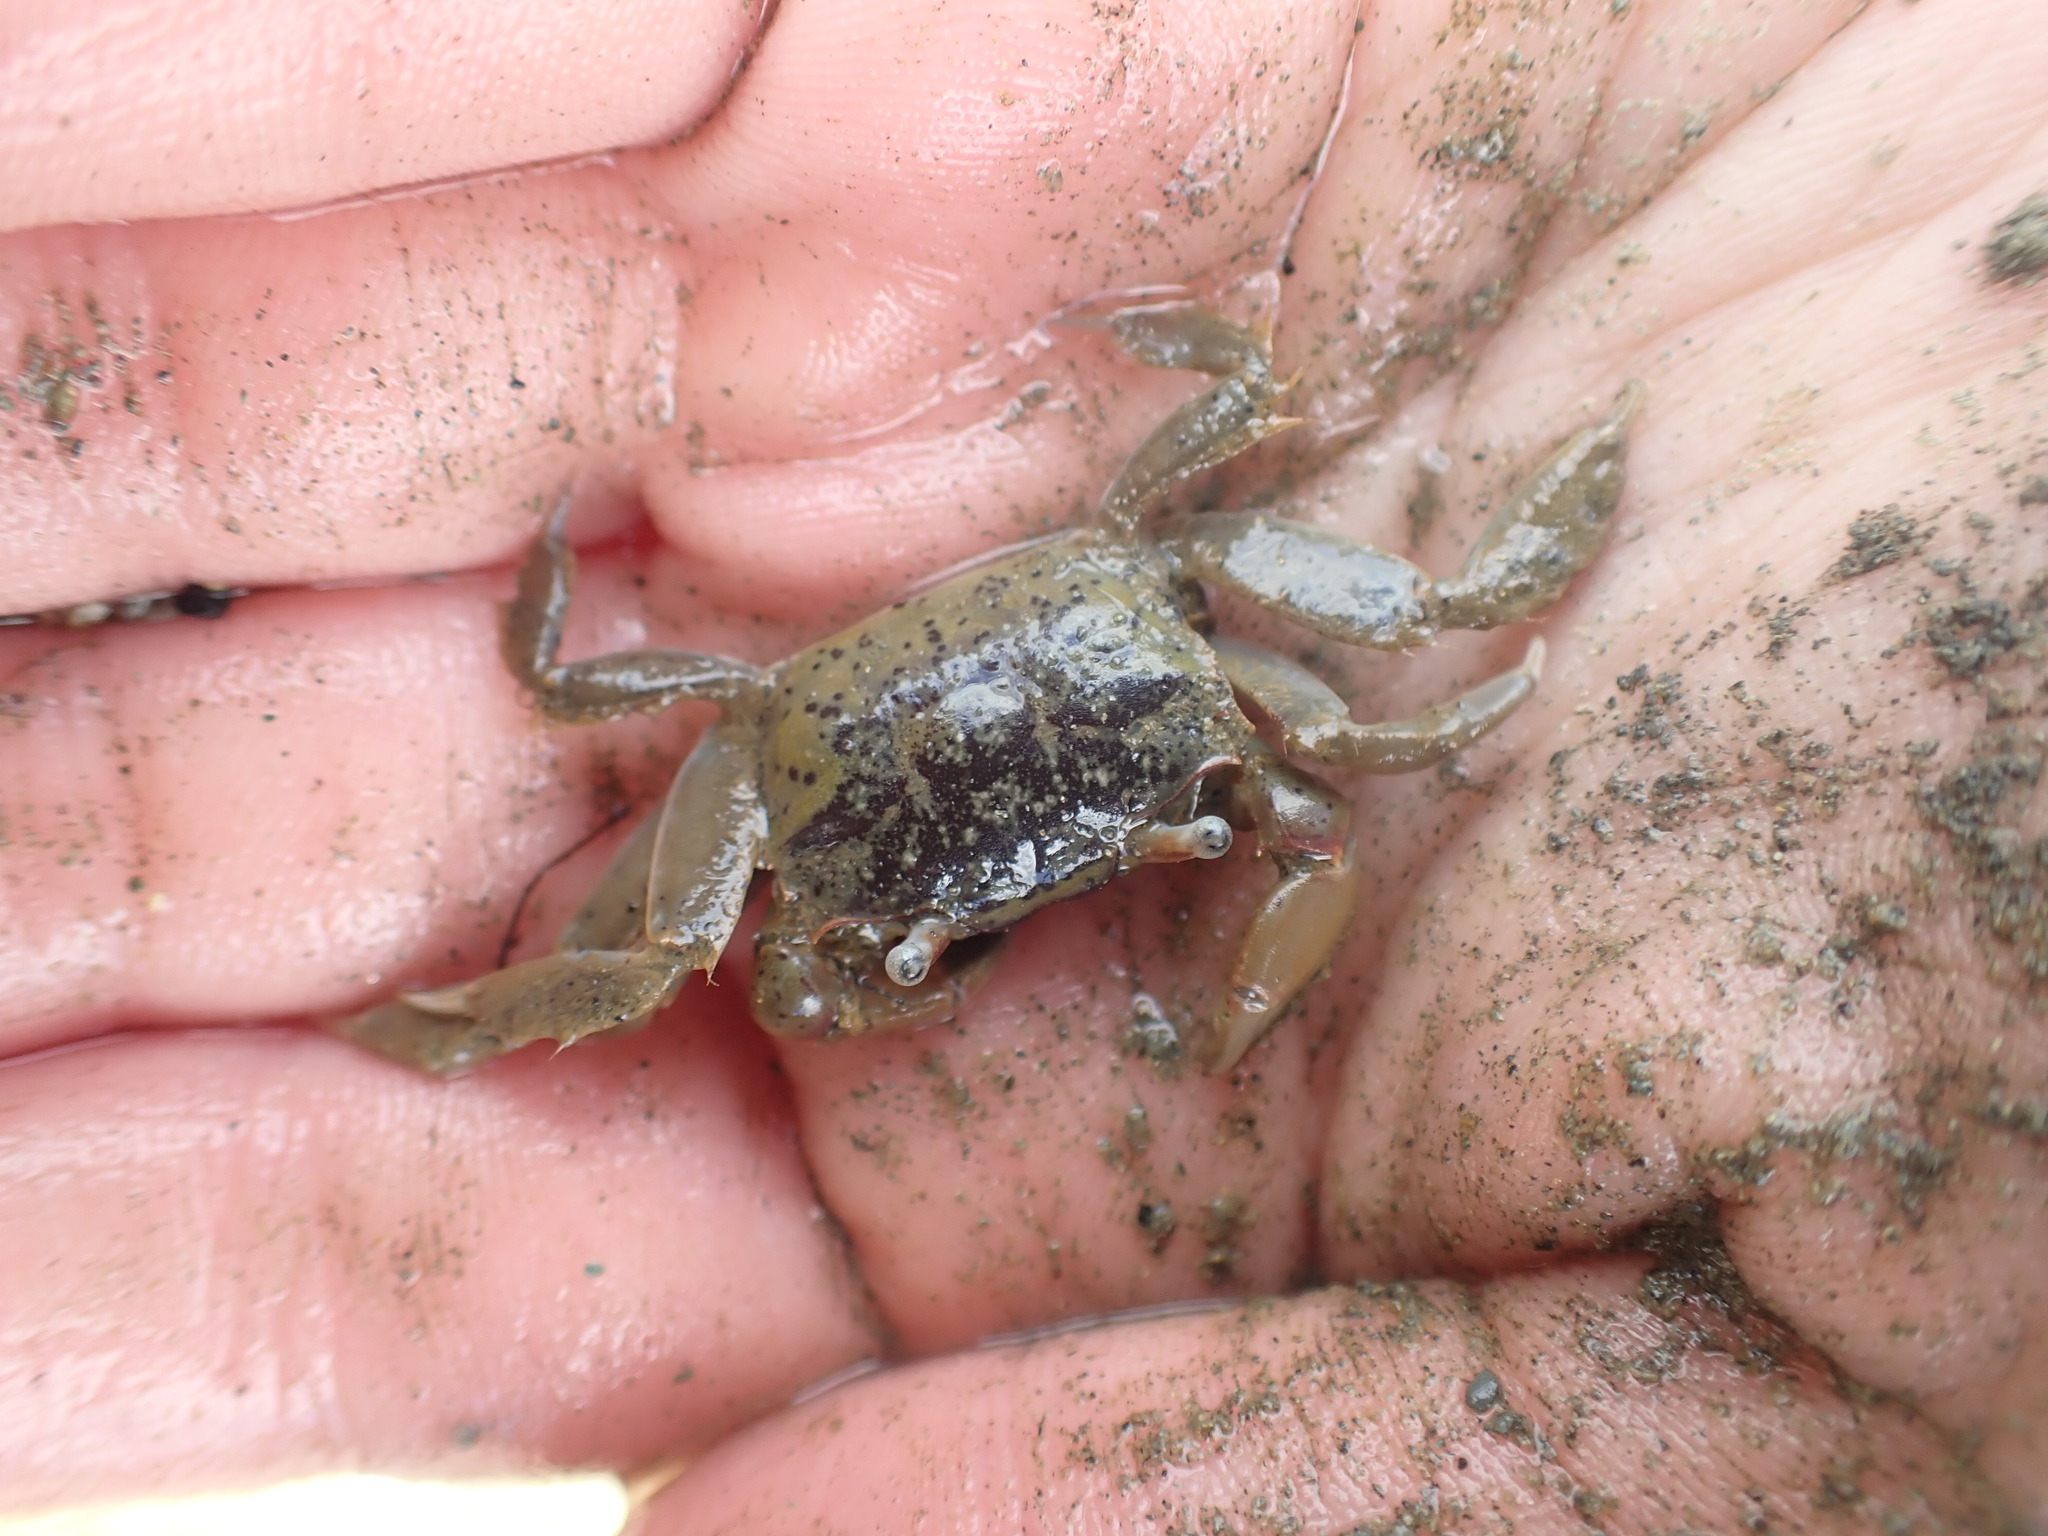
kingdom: Animalia
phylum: Arthropoda
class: Malacostraca
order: Decapoda
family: Macrophthalmidae
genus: Hemiplax
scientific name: Hemiplax hirtipes
